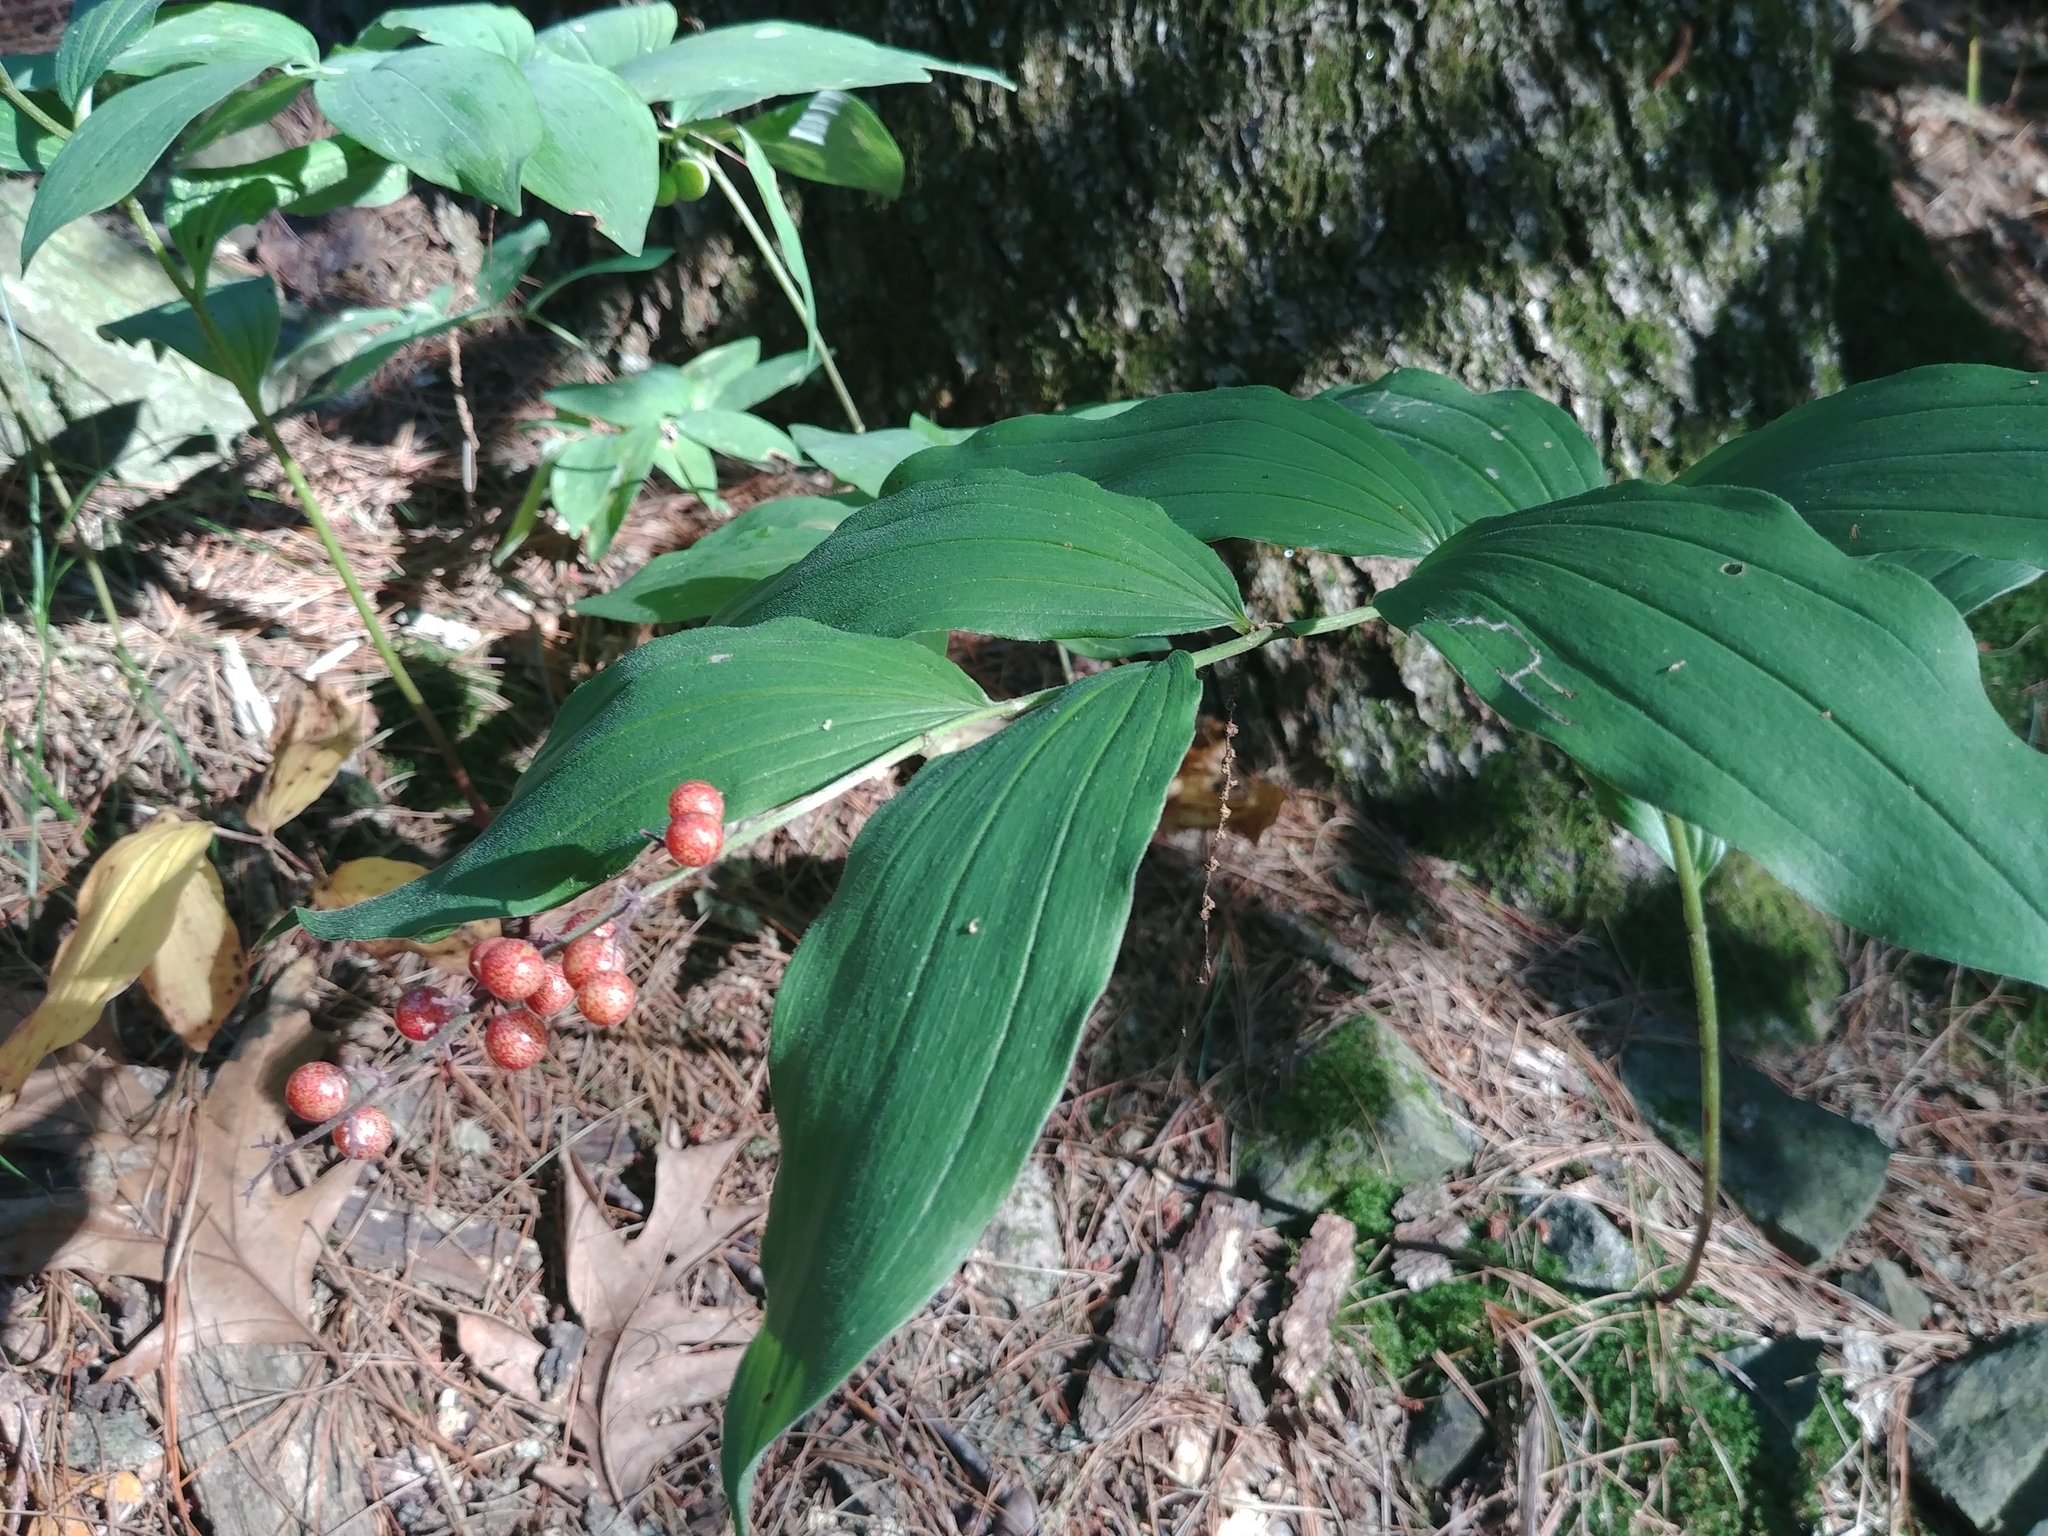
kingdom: Plantae
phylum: Tracheophyta
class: Liliopsida
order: Asparagales
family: Asparagaceae
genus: Maianthemum
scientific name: Maianthemum racemosum
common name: False spikenard
